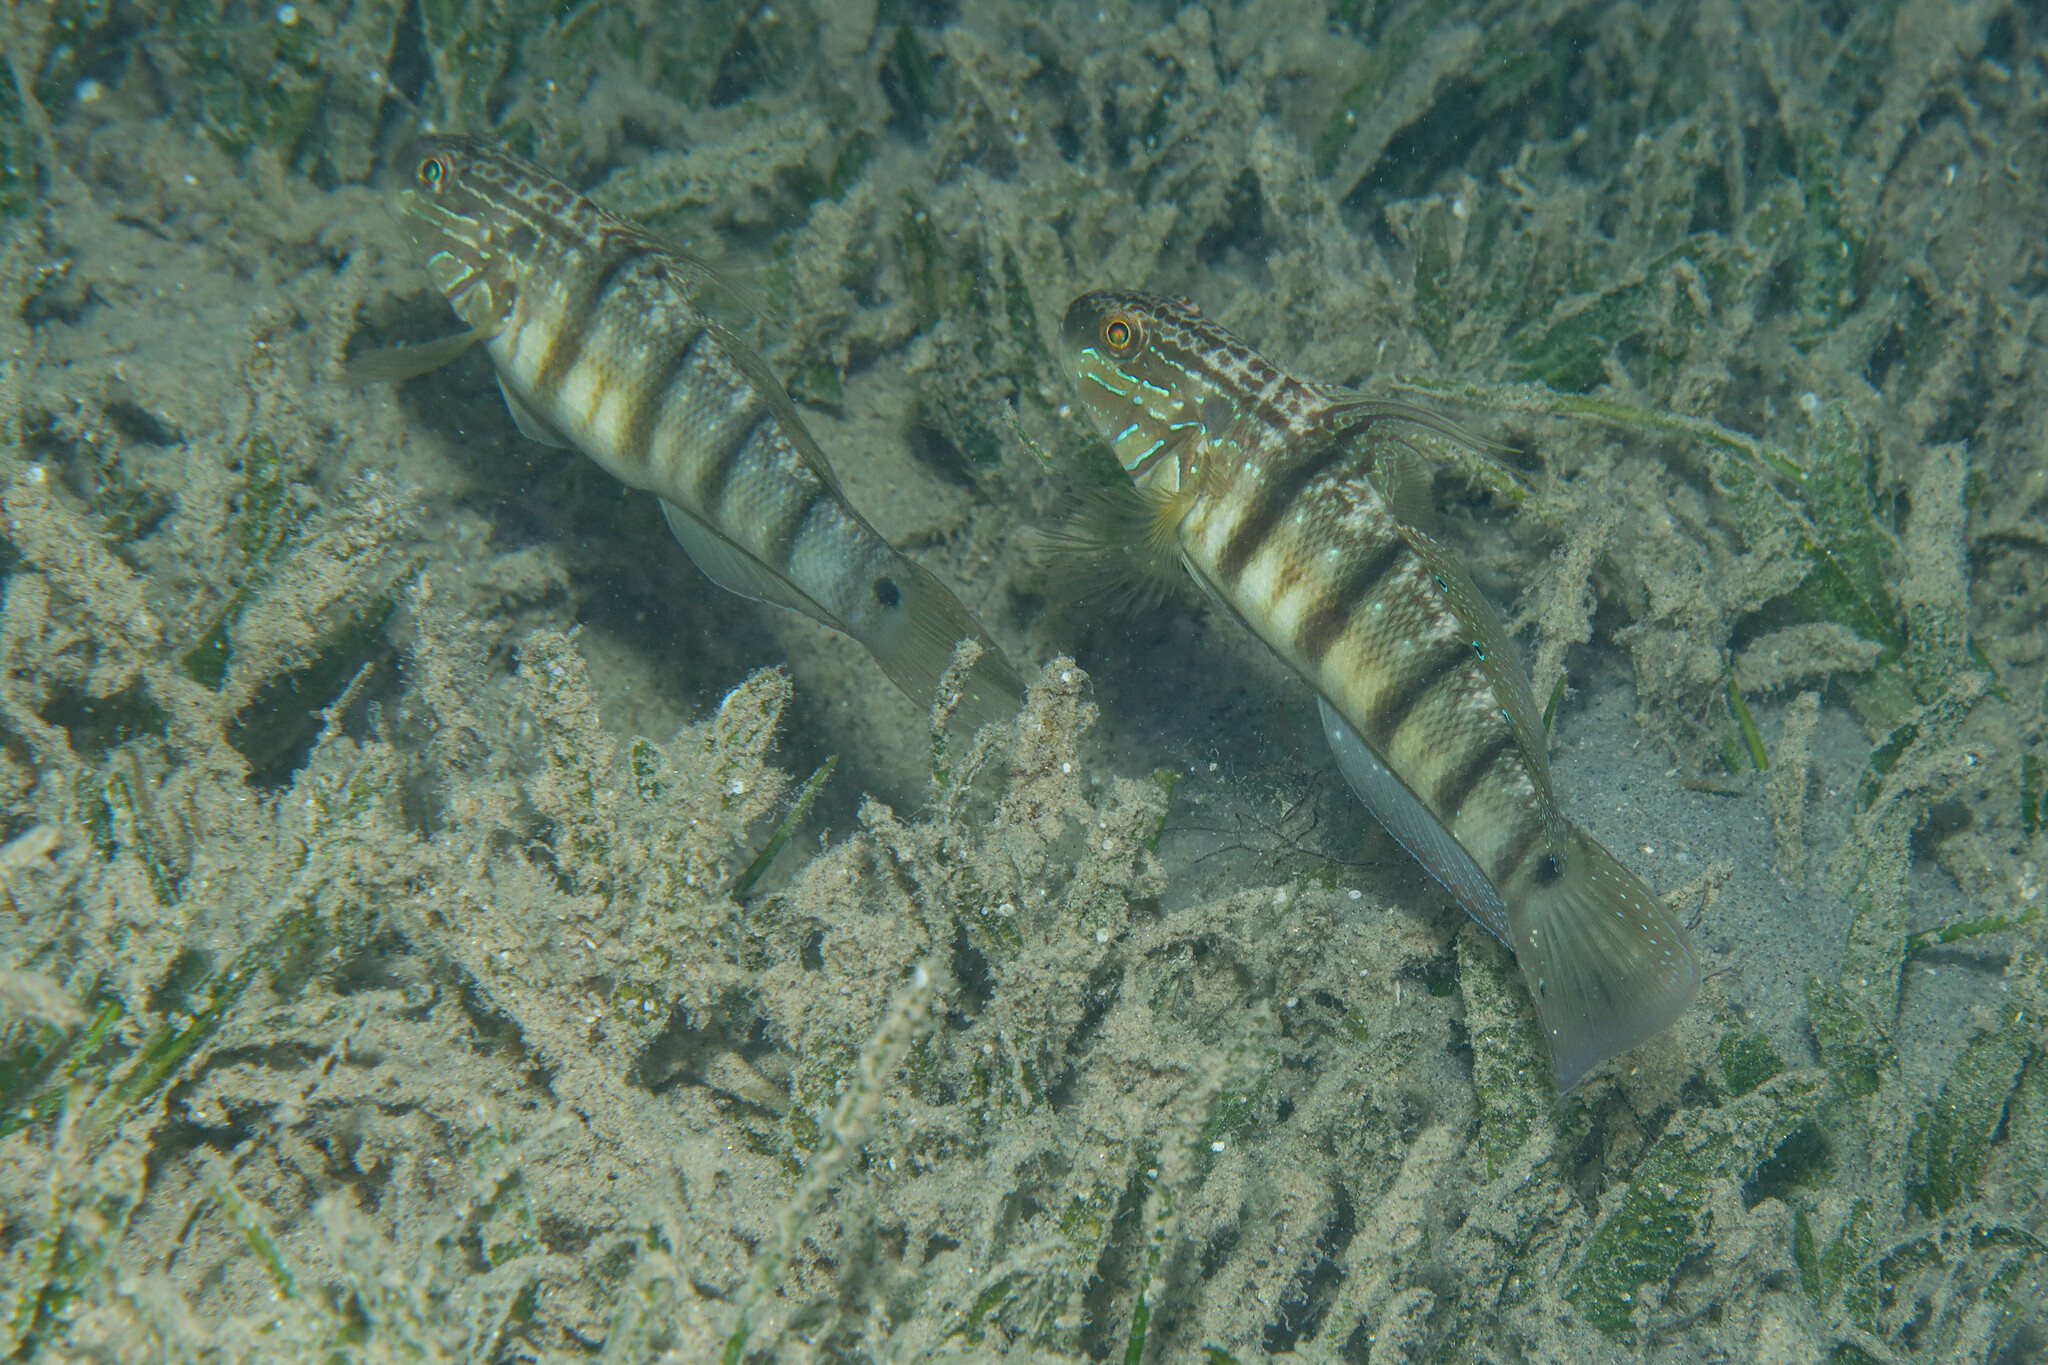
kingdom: Animalia
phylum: Chordata
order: Perciformes
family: Gobiidae
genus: Amblygobius
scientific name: Amblygobius albimaculatus
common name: Butterfly goby
